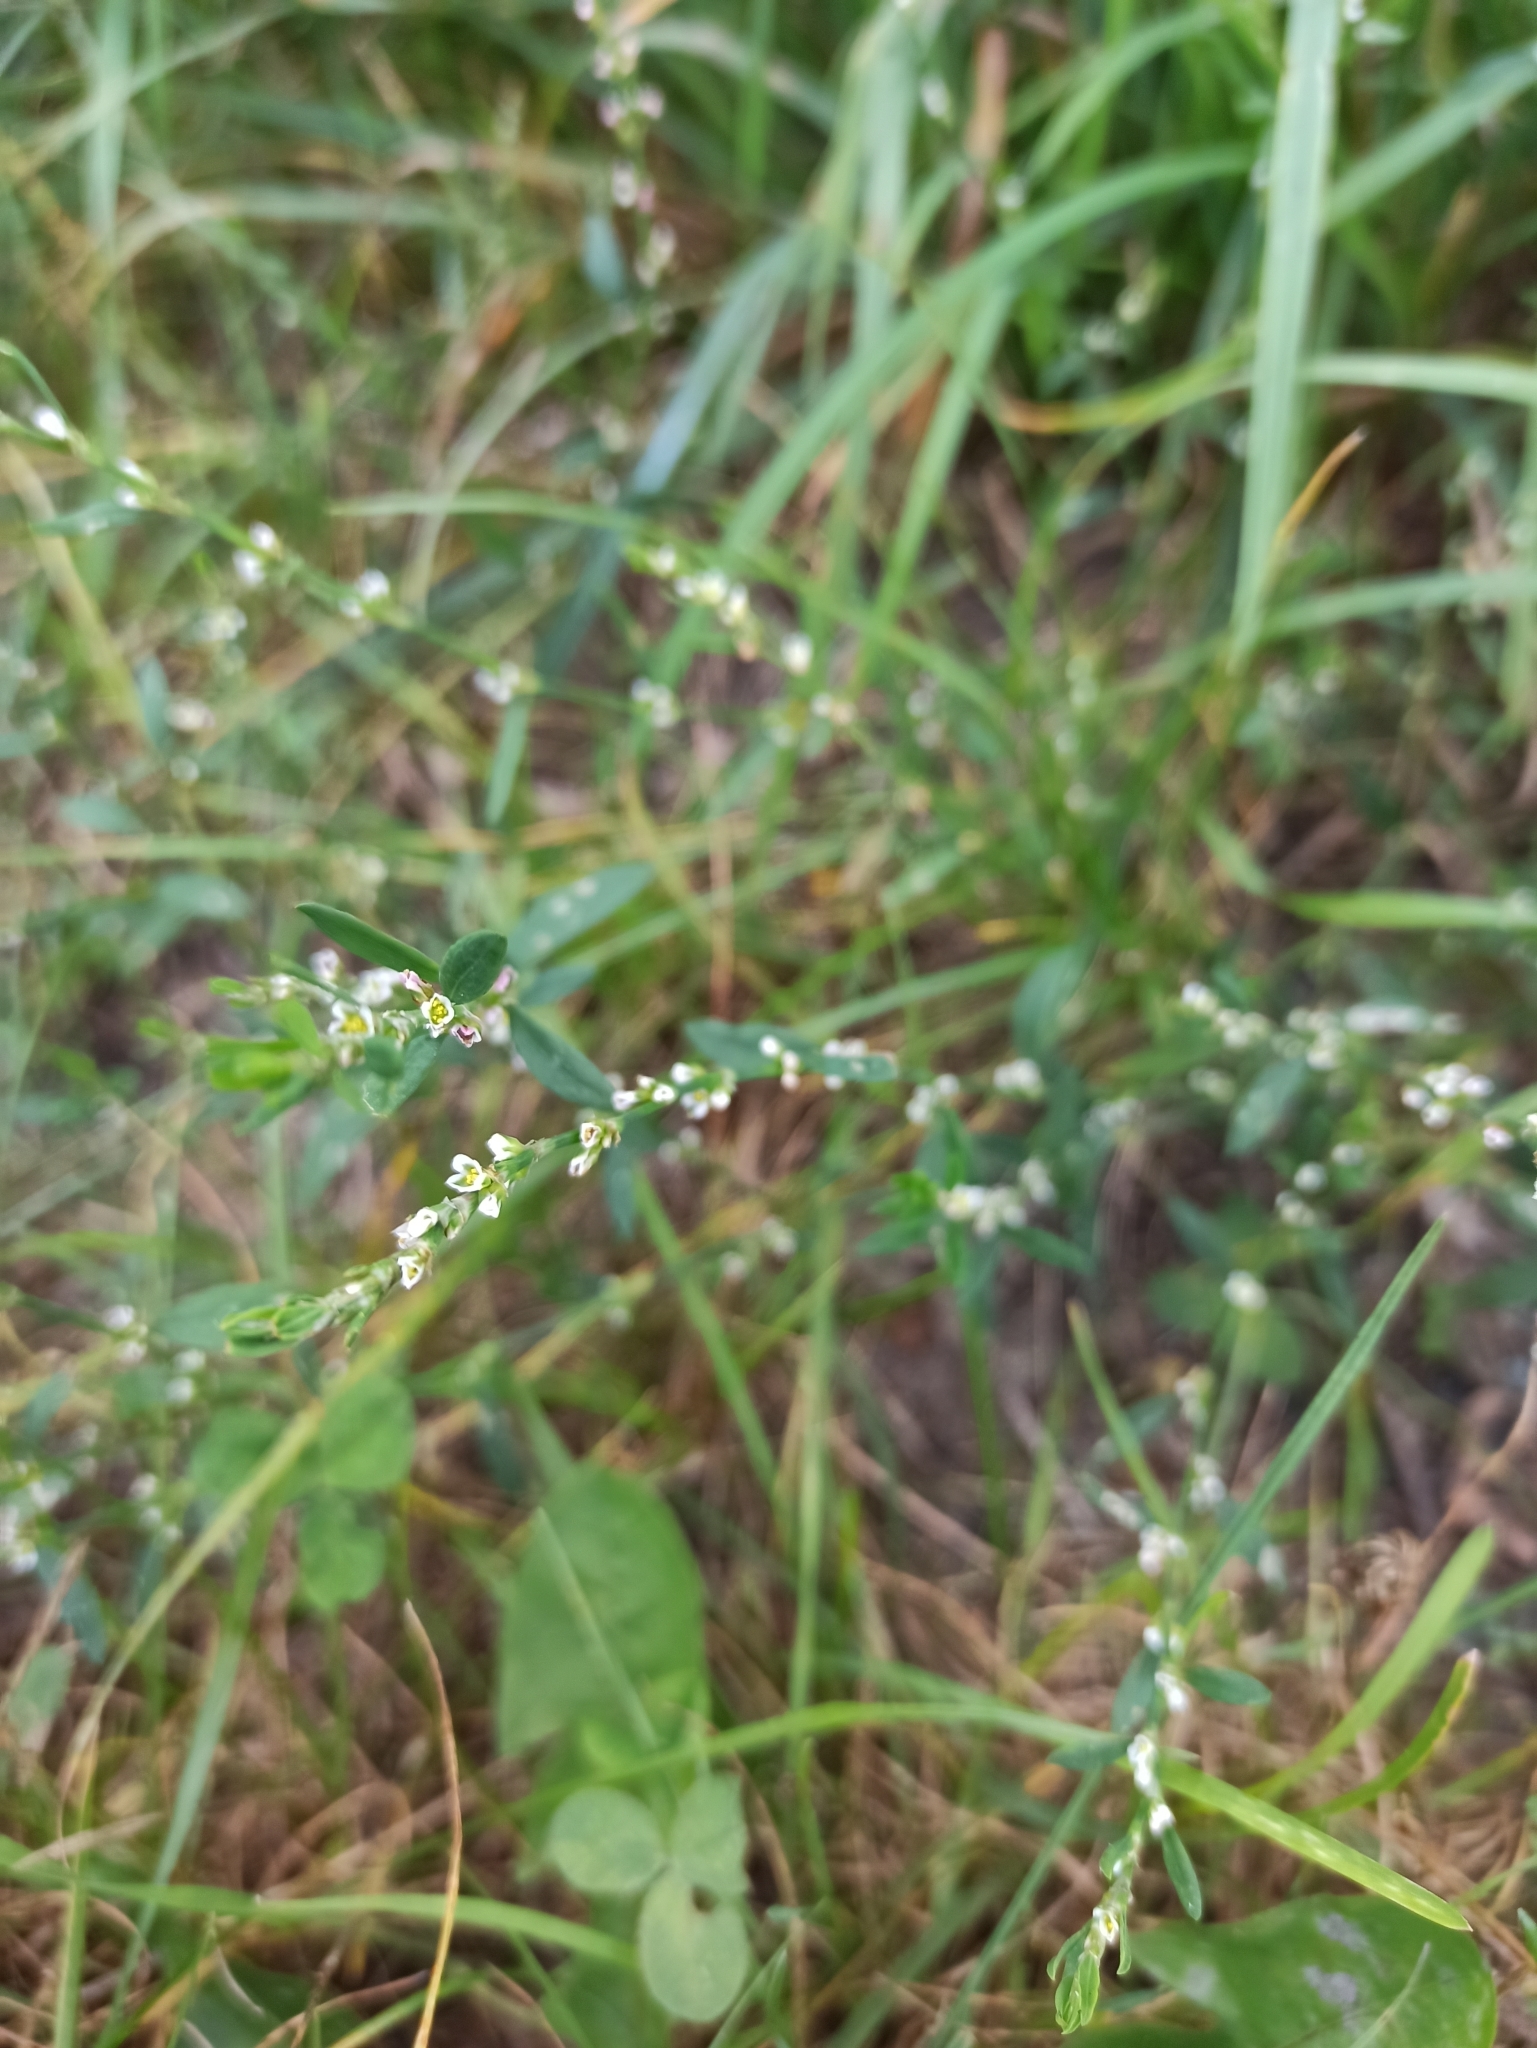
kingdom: Plantae
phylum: Tracheophyta
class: Magnoliopsida
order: Caryophyllales
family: Polygonaceae
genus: Polygonum
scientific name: Polygonum
